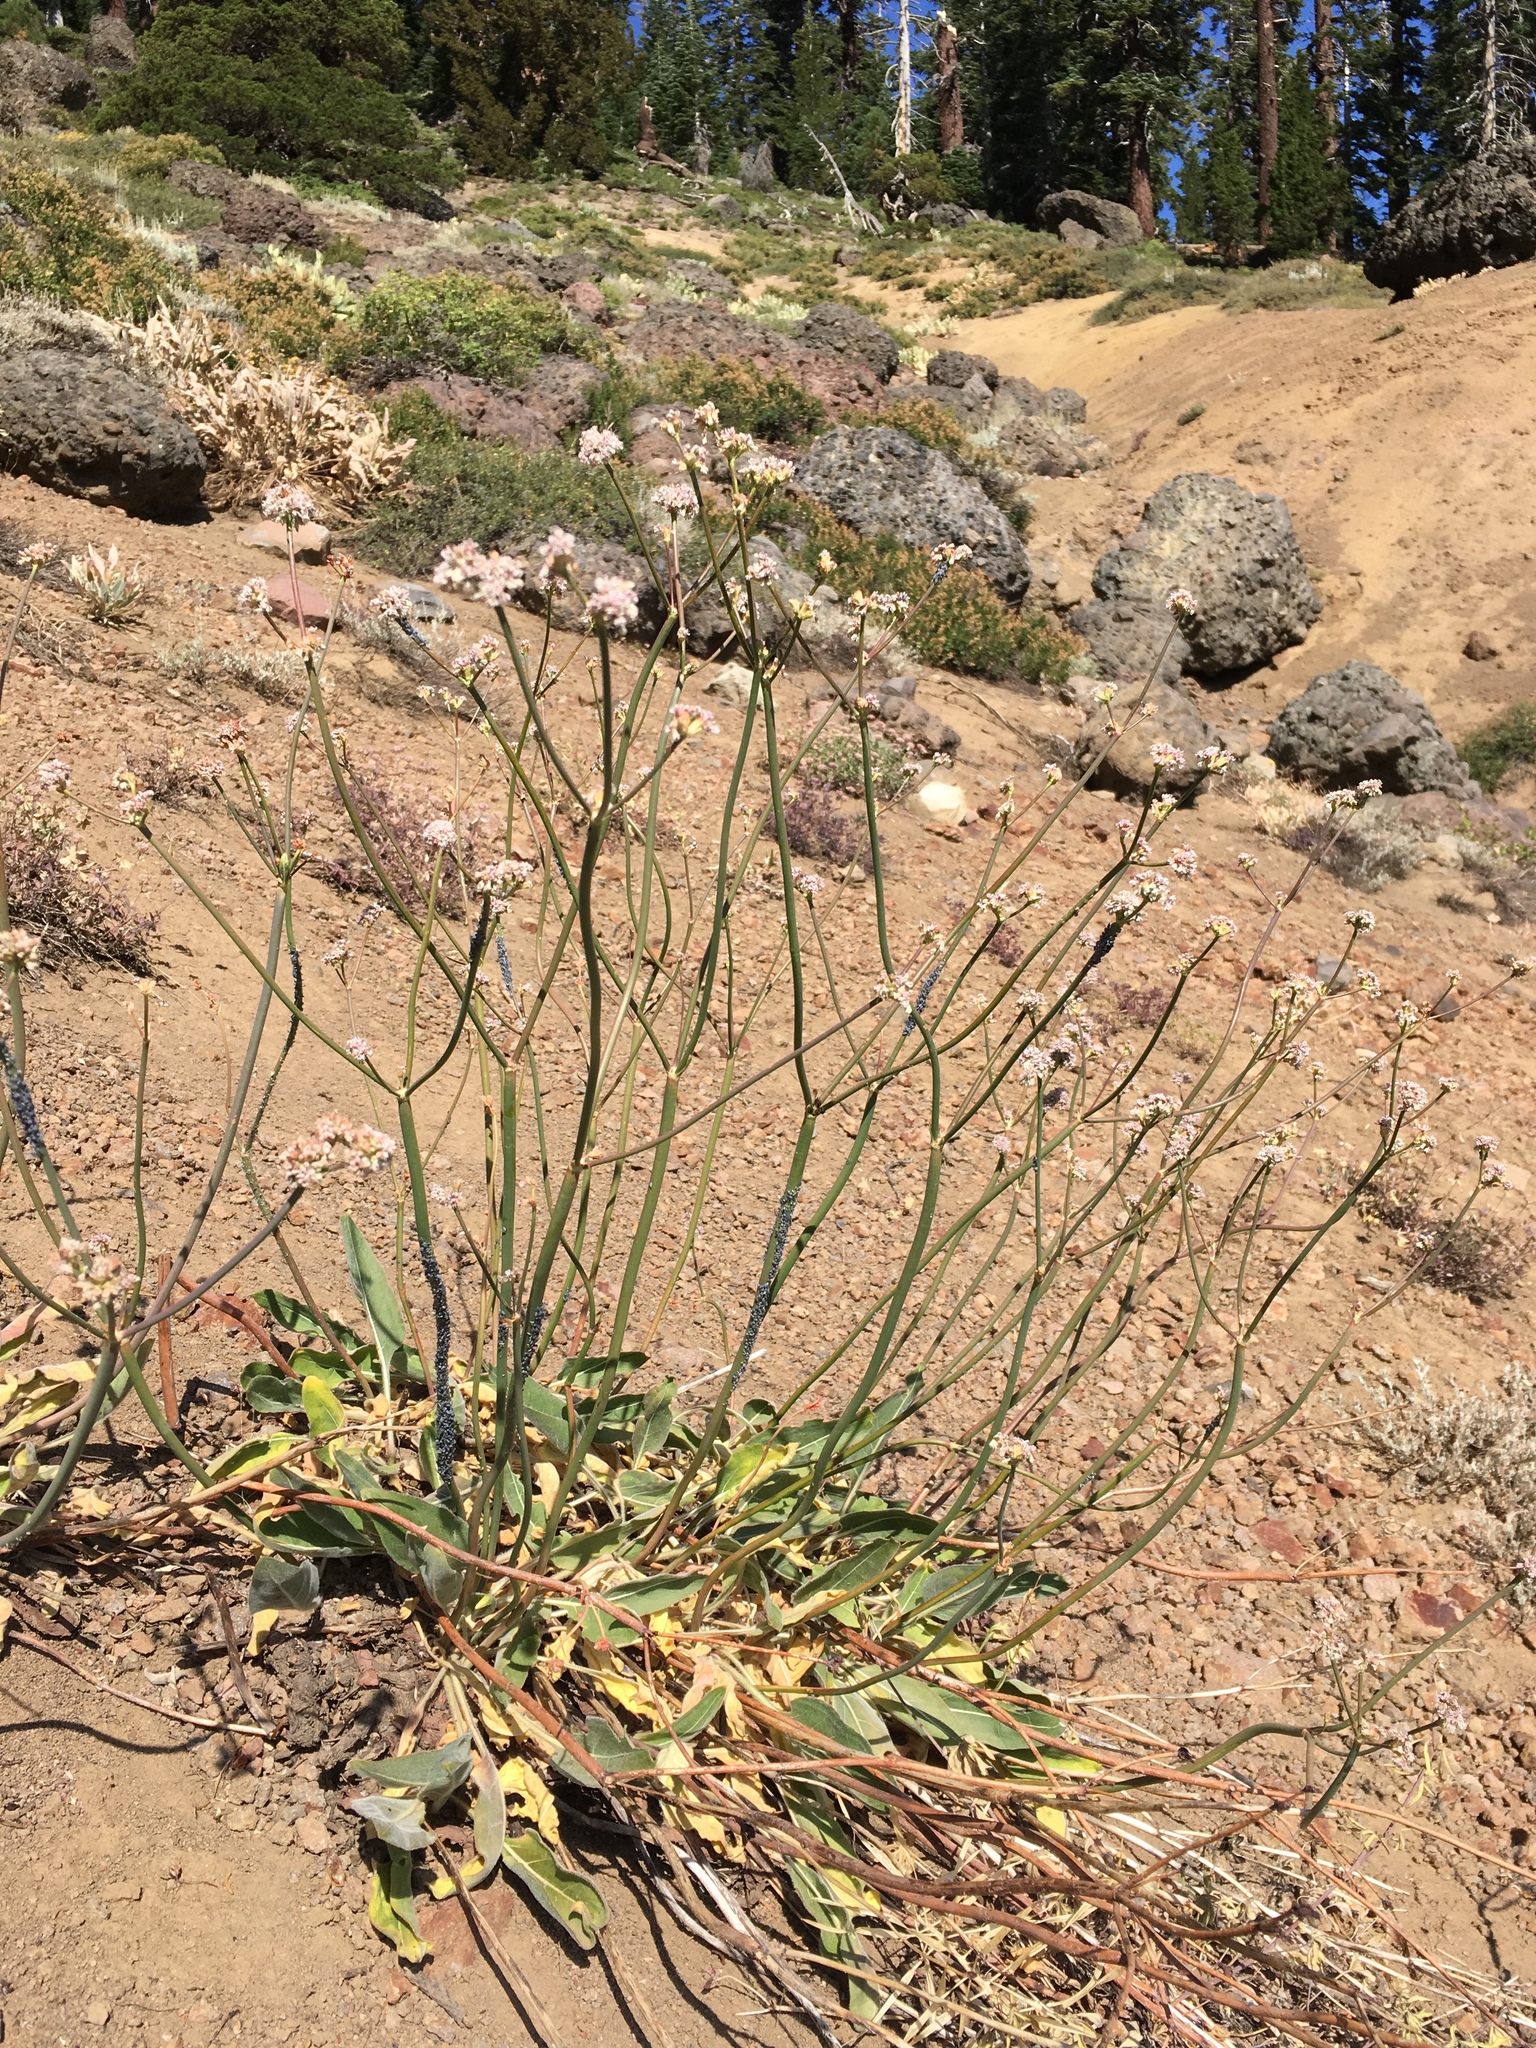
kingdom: Plantae
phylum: Tracheophyta
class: Magnoliopsida
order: Caryophyllales
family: Polygonaceae
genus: Eriogonum
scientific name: Eriogonum elatum
